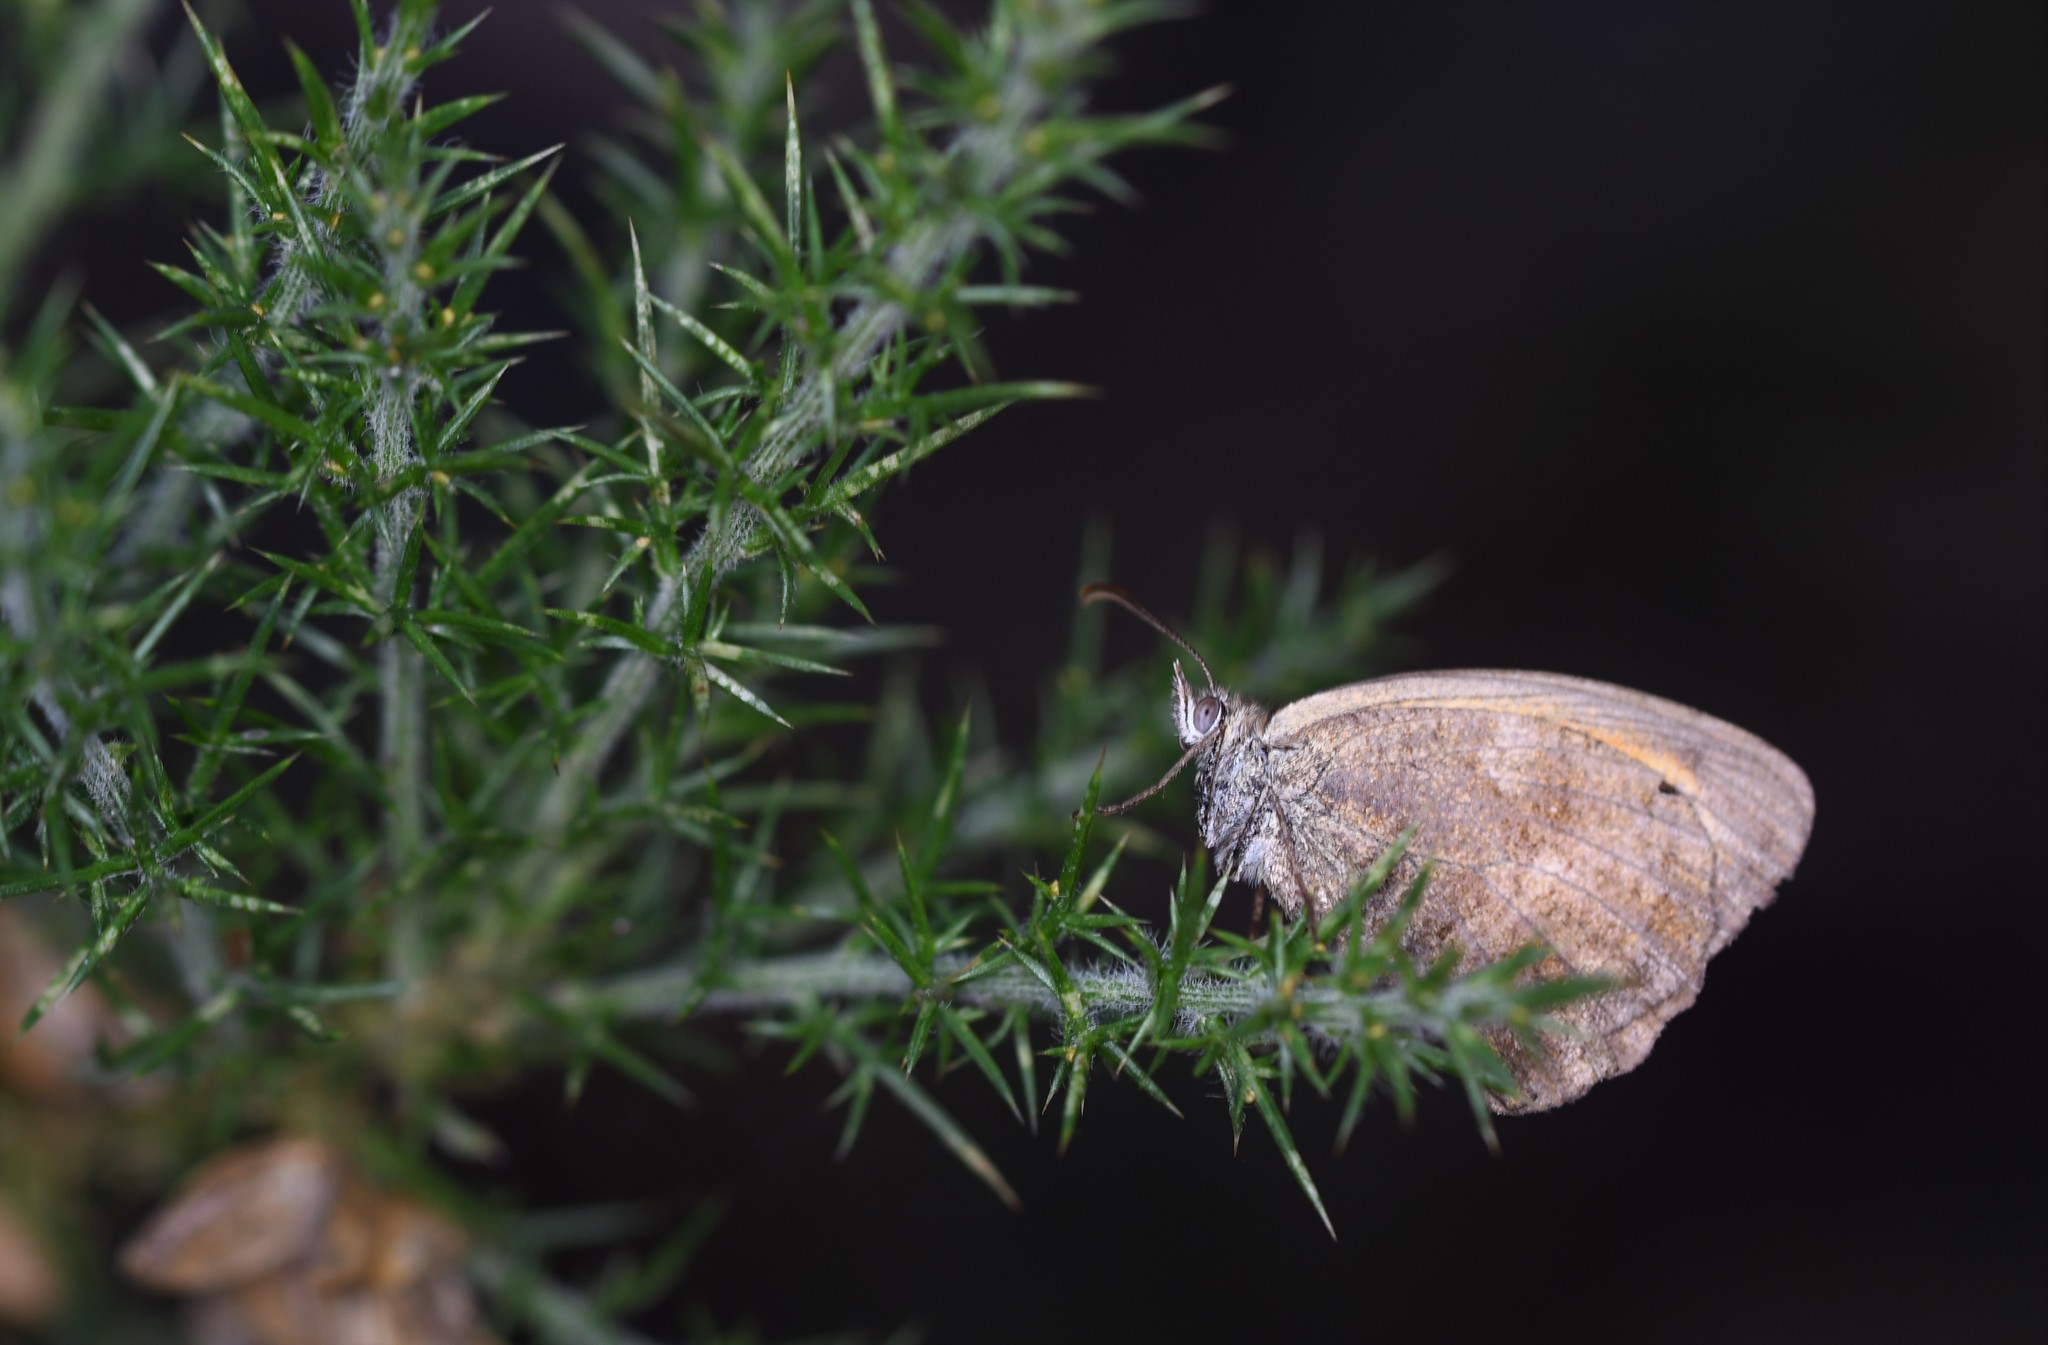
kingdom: Animalia
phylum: Arthropoda
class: Insecta
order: Lepidoptera
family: Nymphalidae
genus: Pyronia
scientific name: Pyronia tithonus
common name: Gatekeeper
